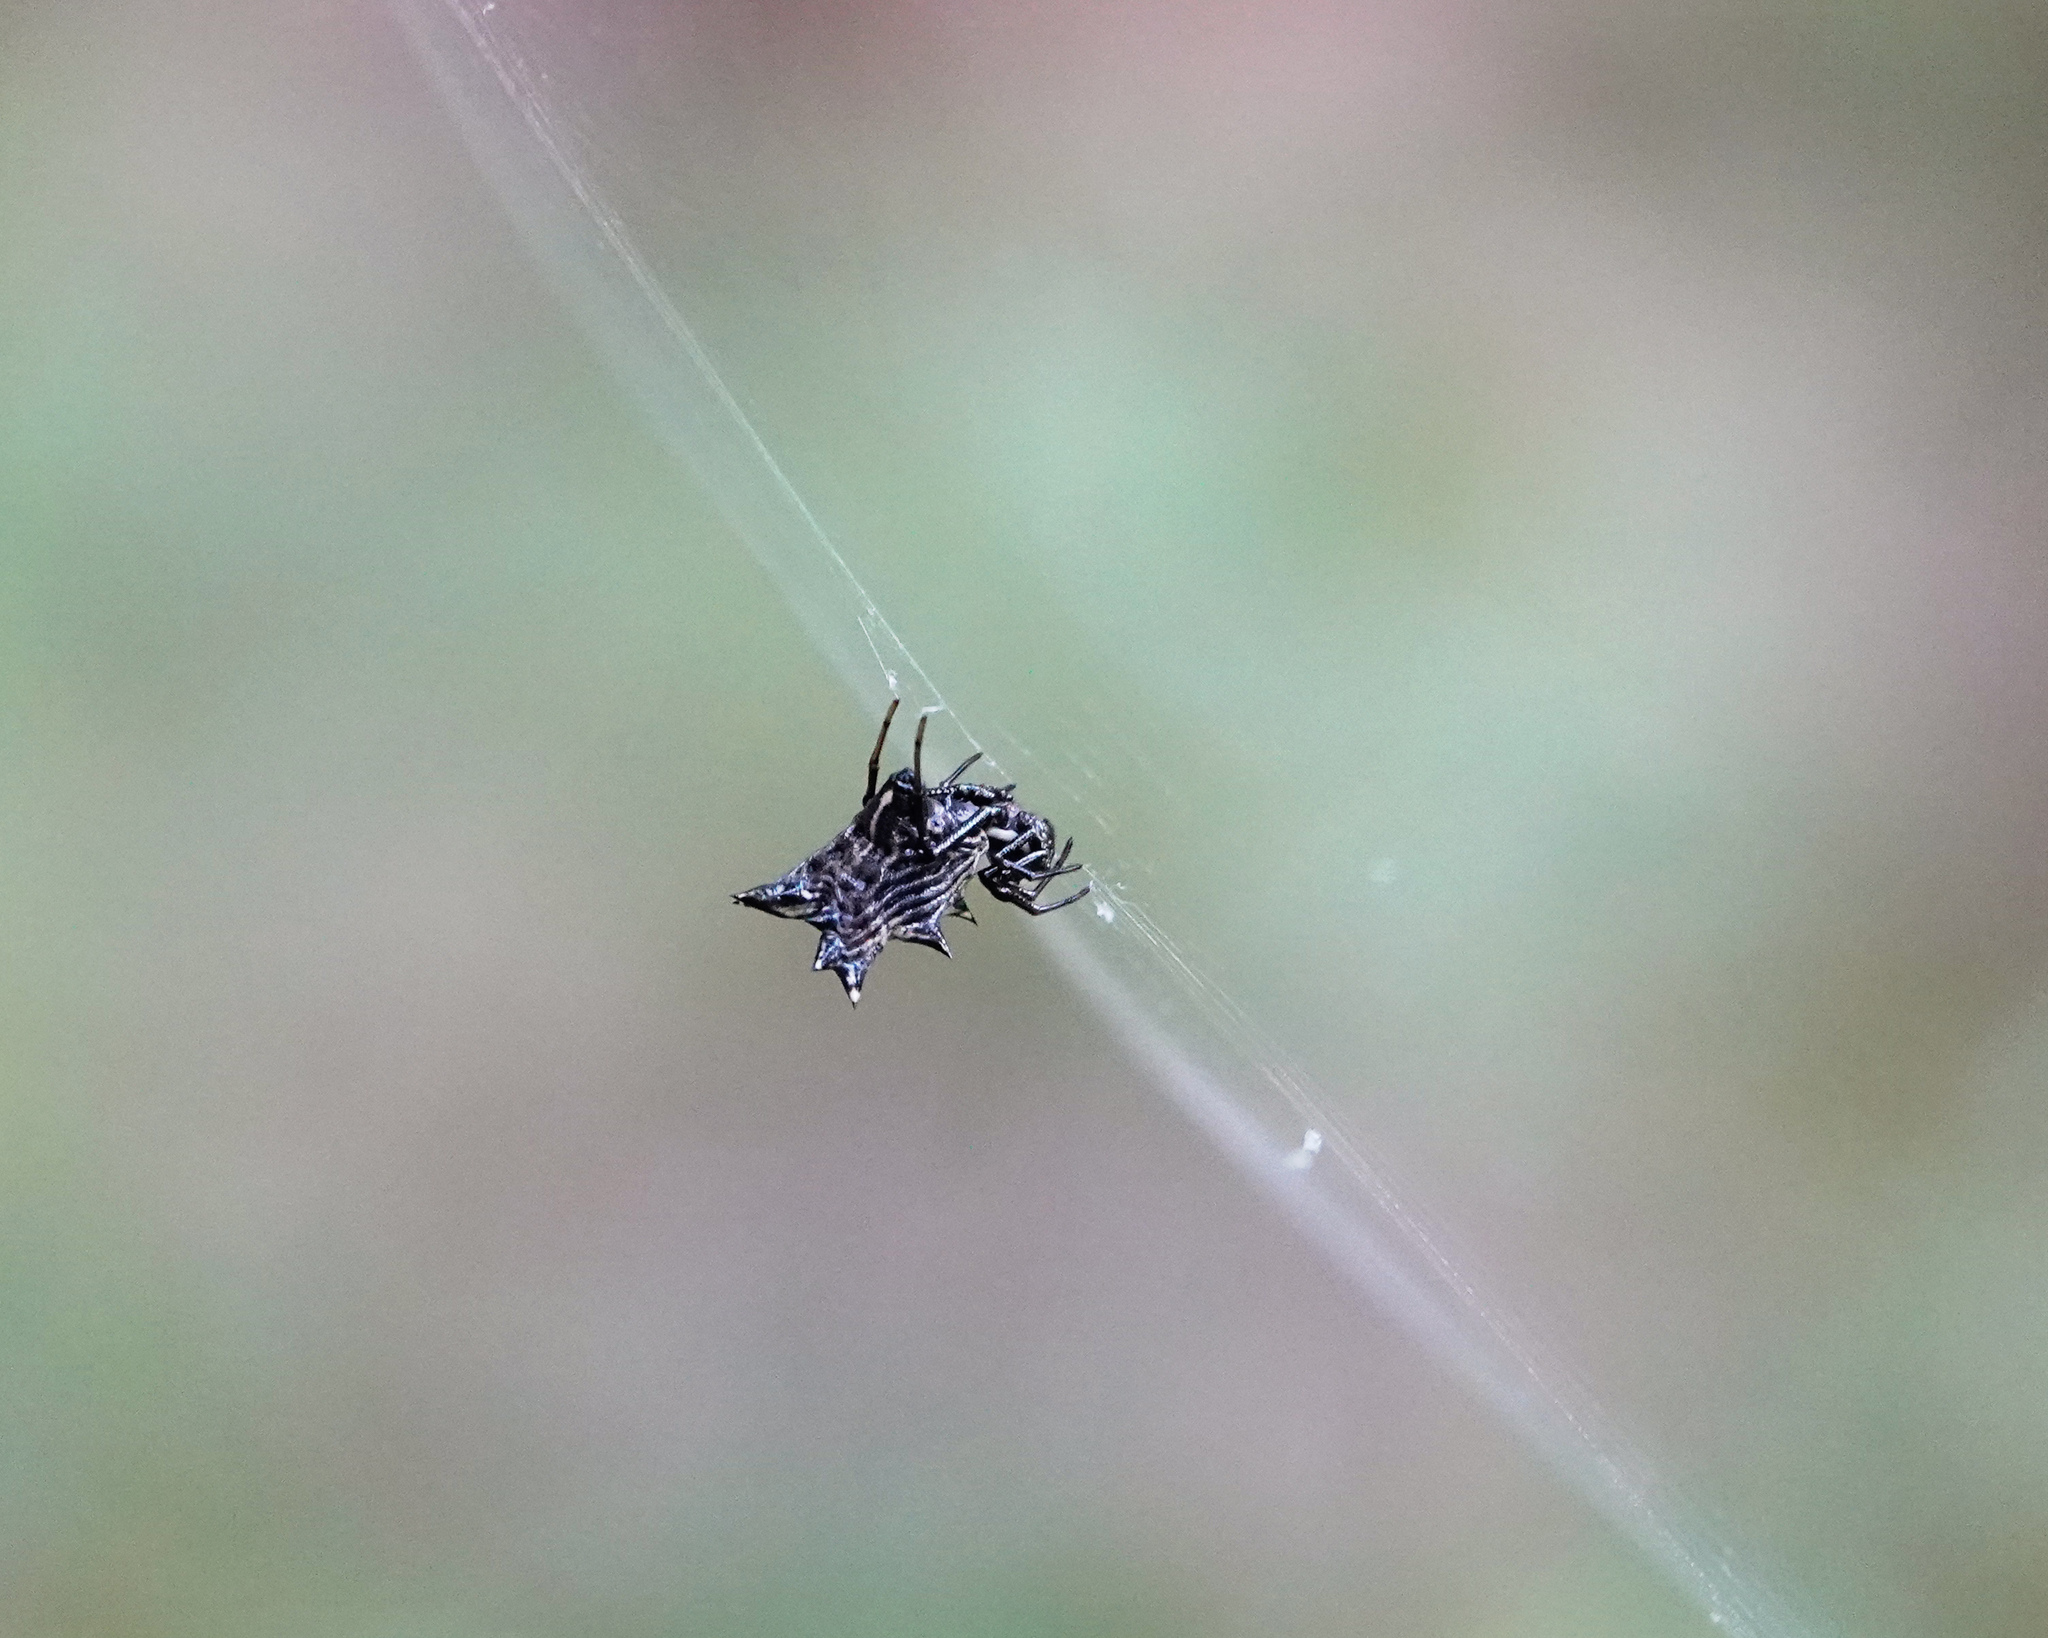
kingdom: Animalia
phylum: Arthropoda
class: Arachnida
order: Araneae
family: Araneidae
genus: Micrathena
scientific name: Micrathena gracilis
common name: Orb weavers
